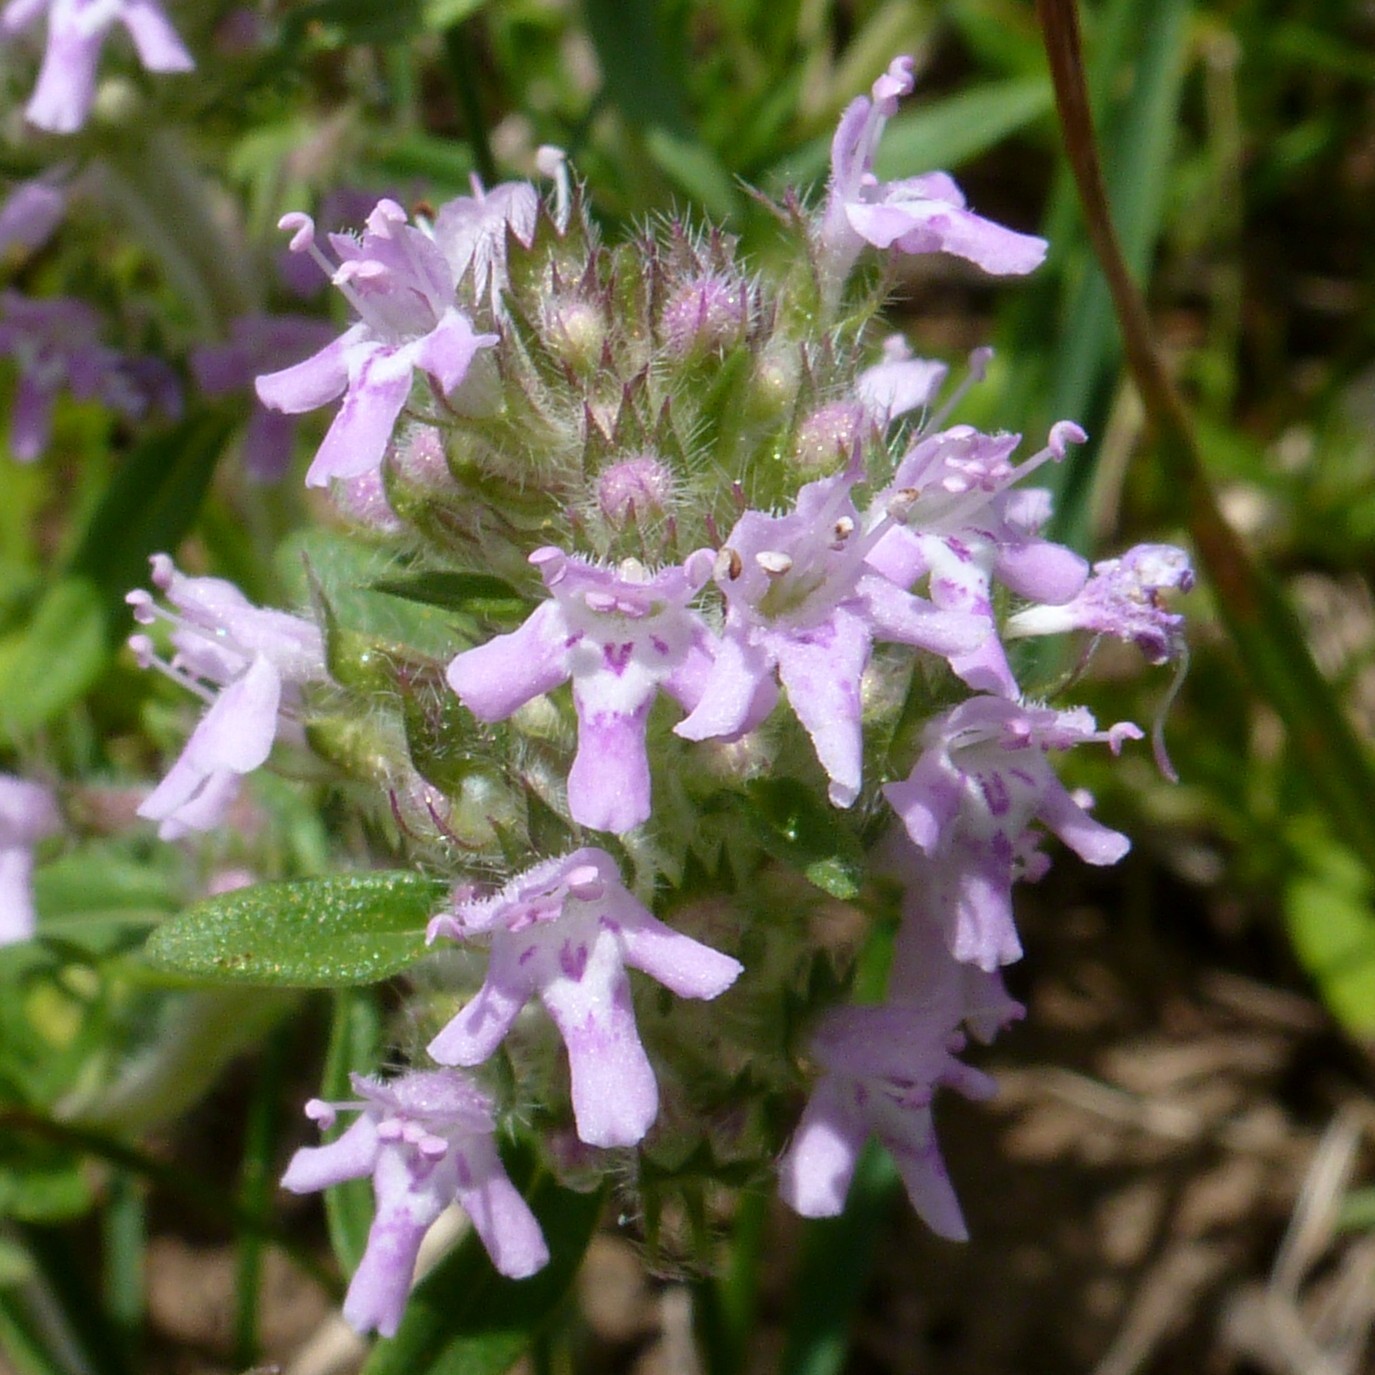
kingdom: Plantae
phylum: Tracheophyta
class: Magnoliopsida
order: Lamiales
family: Lamiaceae
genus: Thymus
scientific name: Thymus pannonicus
